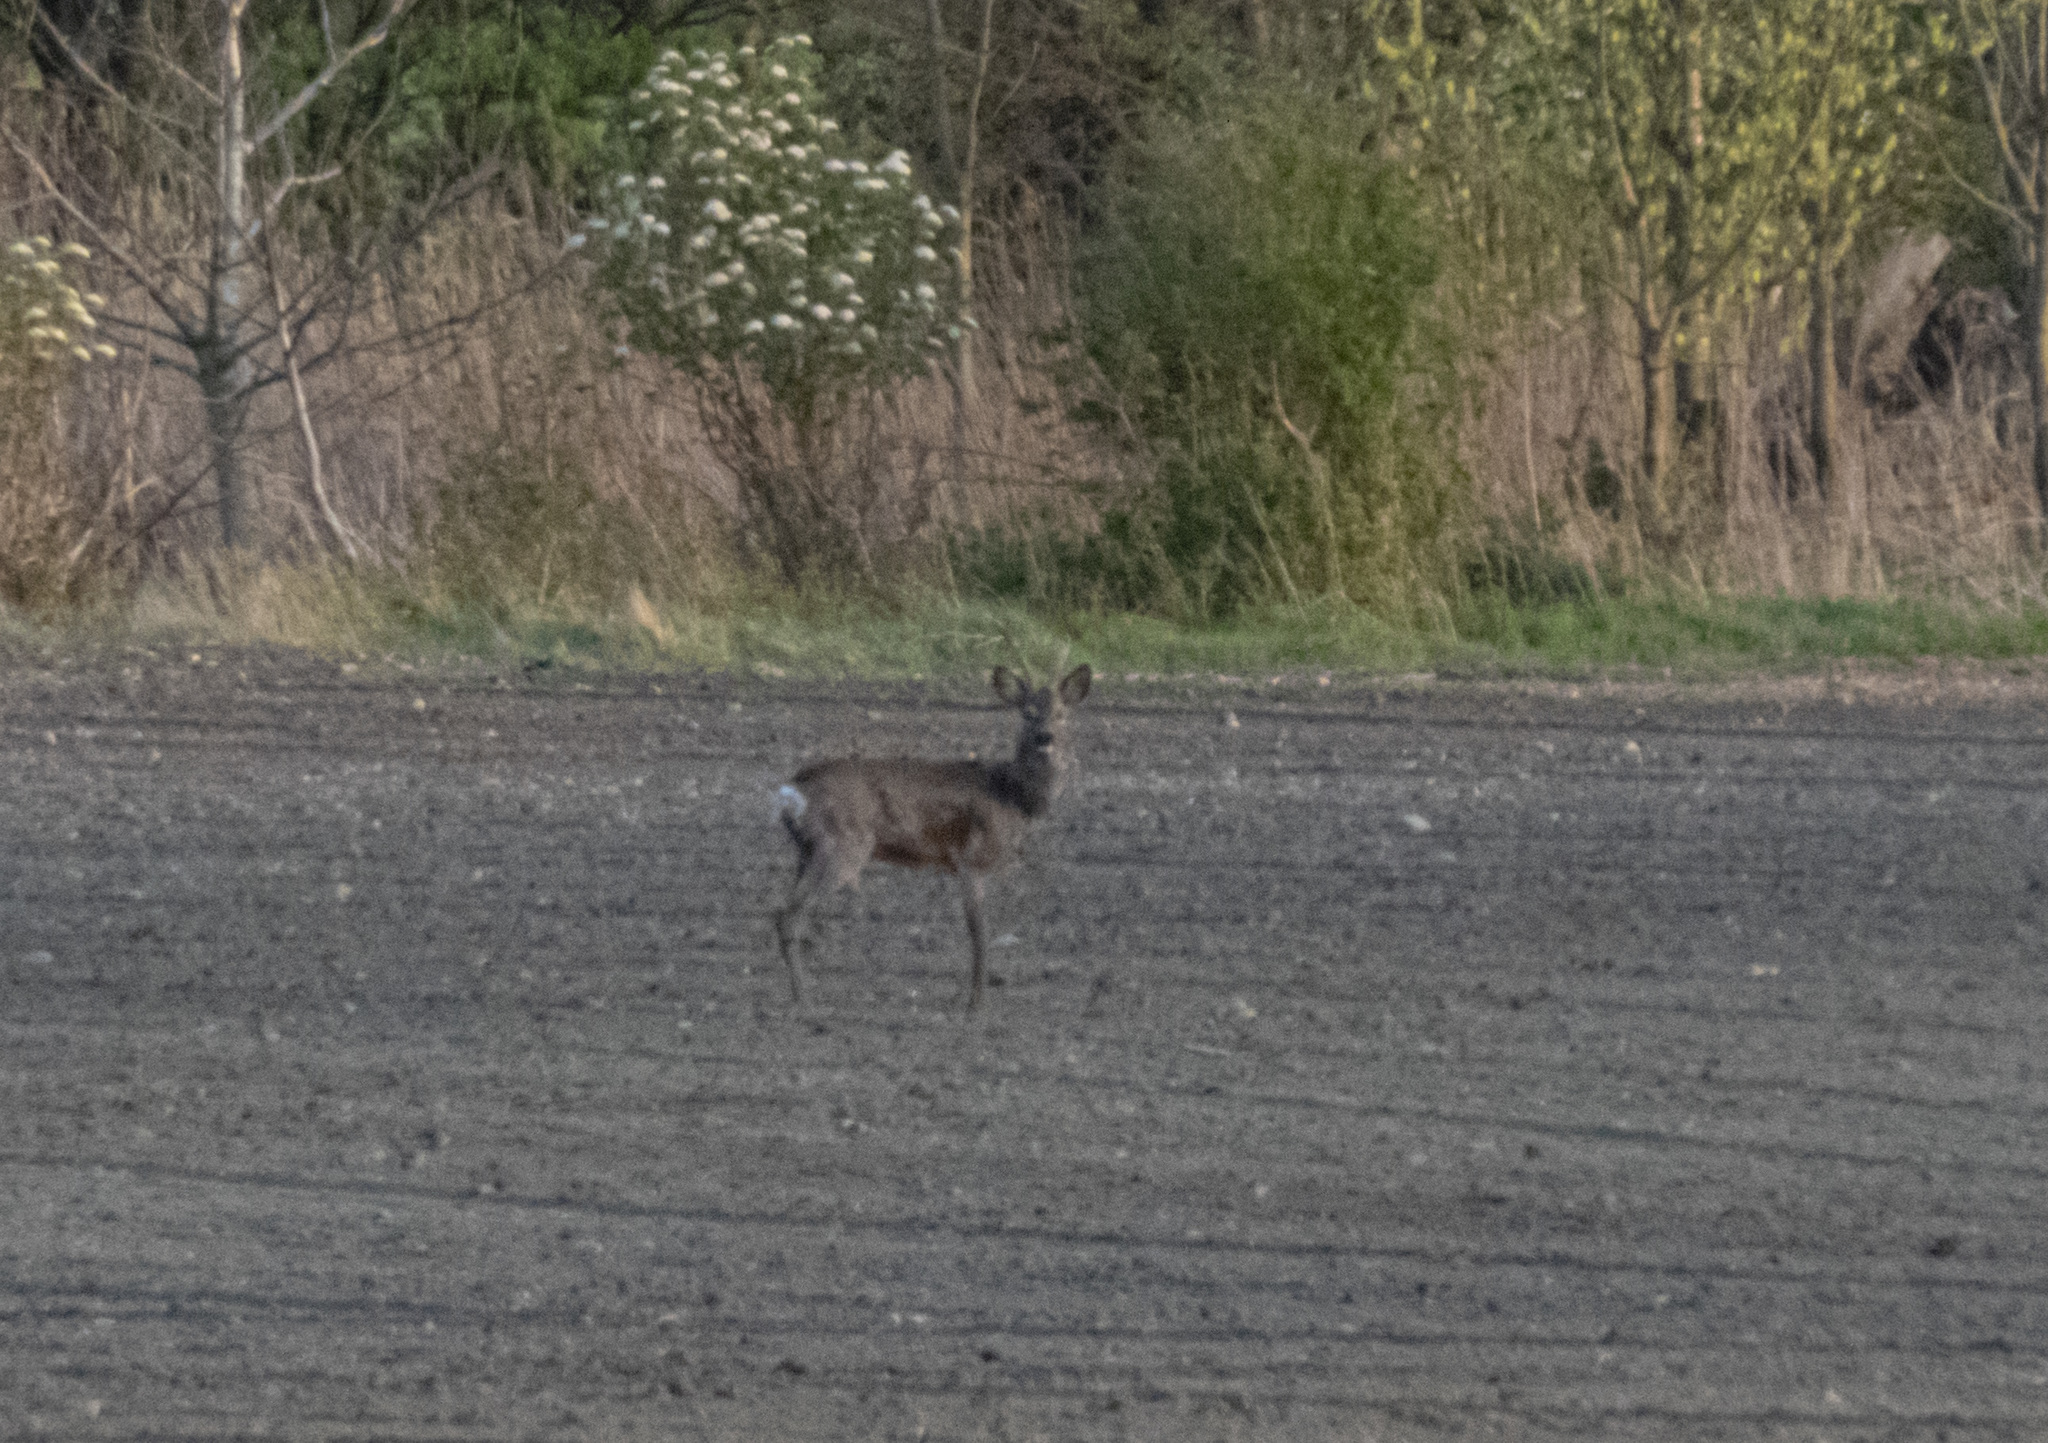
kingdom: Animalia
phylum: Chordata
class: Mammalia
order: Artiodactyla
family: Cervidae
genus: Capreolus
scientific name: Capreolus capreolus
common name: Western roe deer
